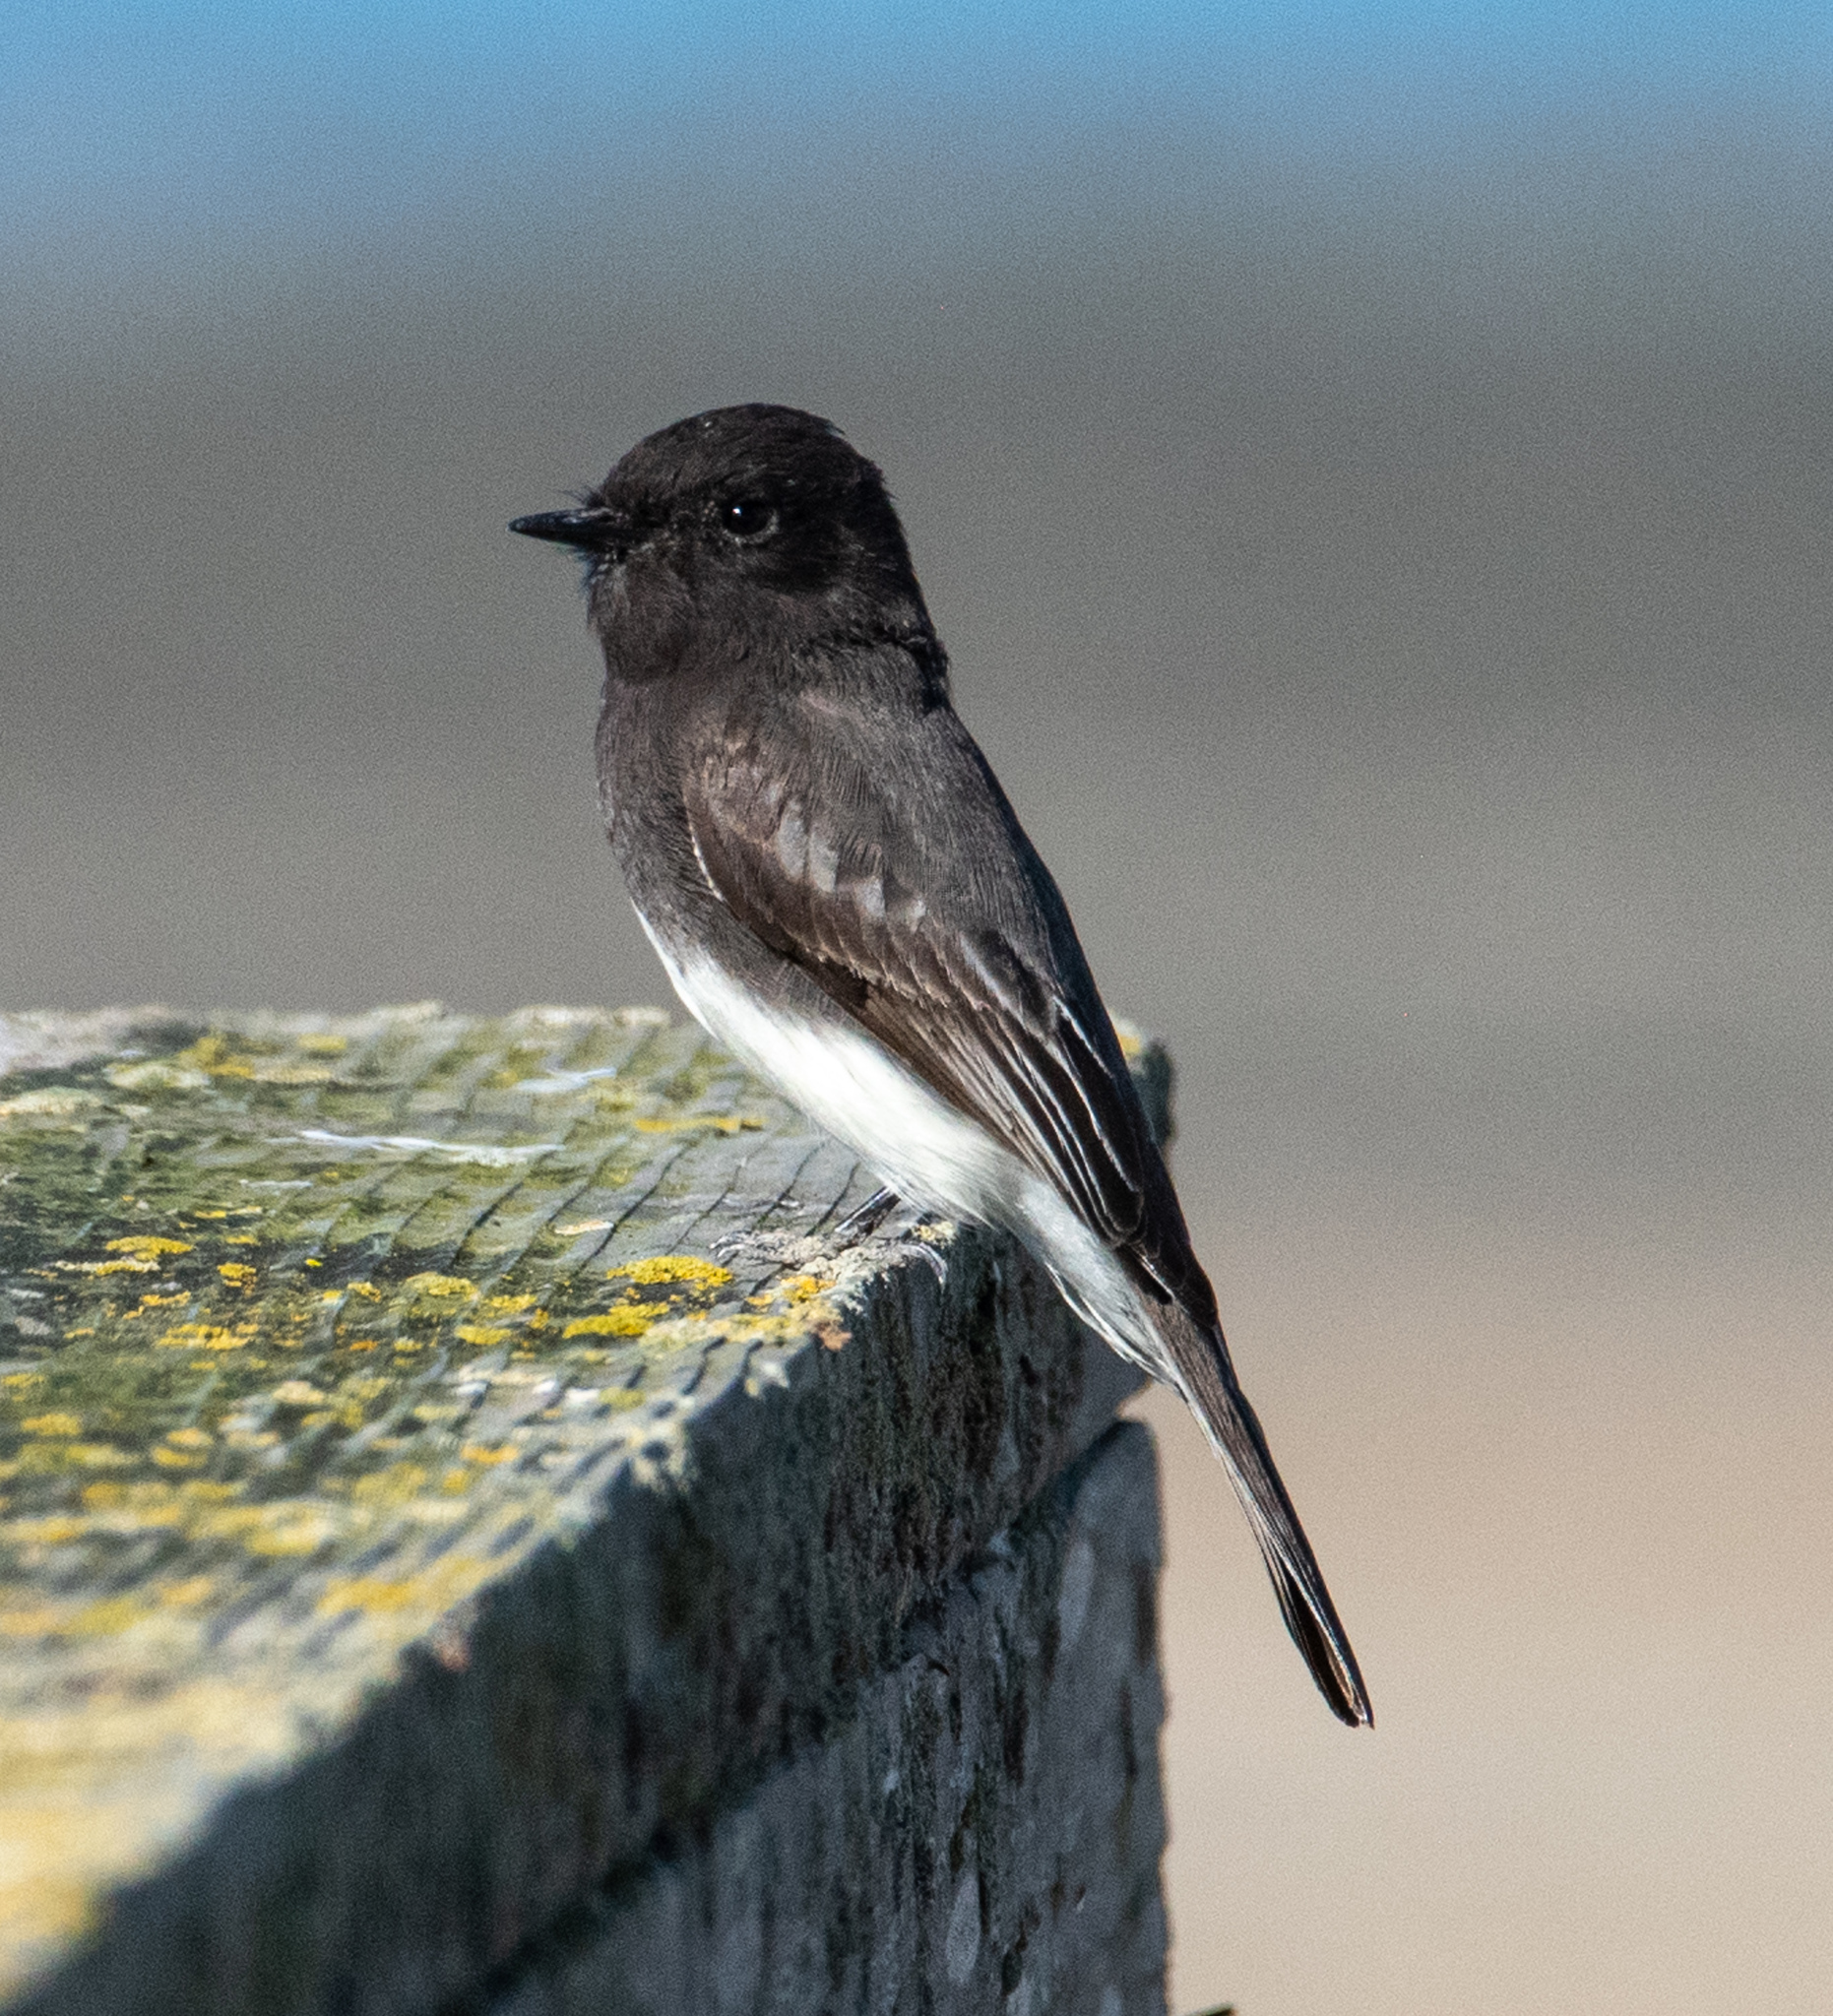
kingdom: Animalia
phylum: Chordata
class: Aves
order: Passeriformes
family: Tyrannidae
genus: Sayornis
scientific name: Sayornis nigricans
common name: Black phoebe
